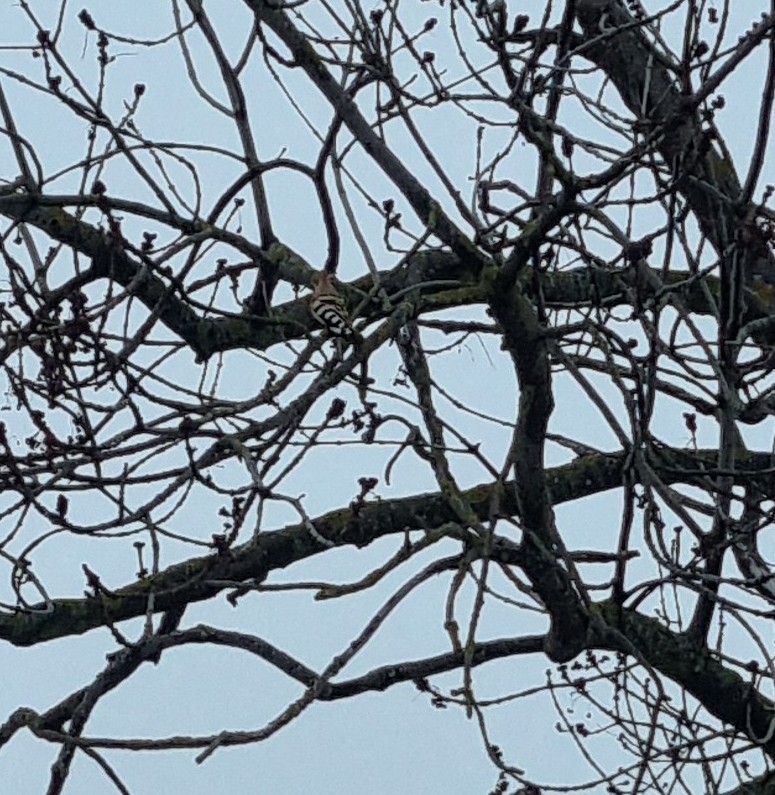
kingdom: Animalia
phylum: Chordata
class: Aves
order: Bucerotiformes
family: Upupidae
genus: Upupa
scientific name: Upupa epops
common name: Eurasian hoopoe
